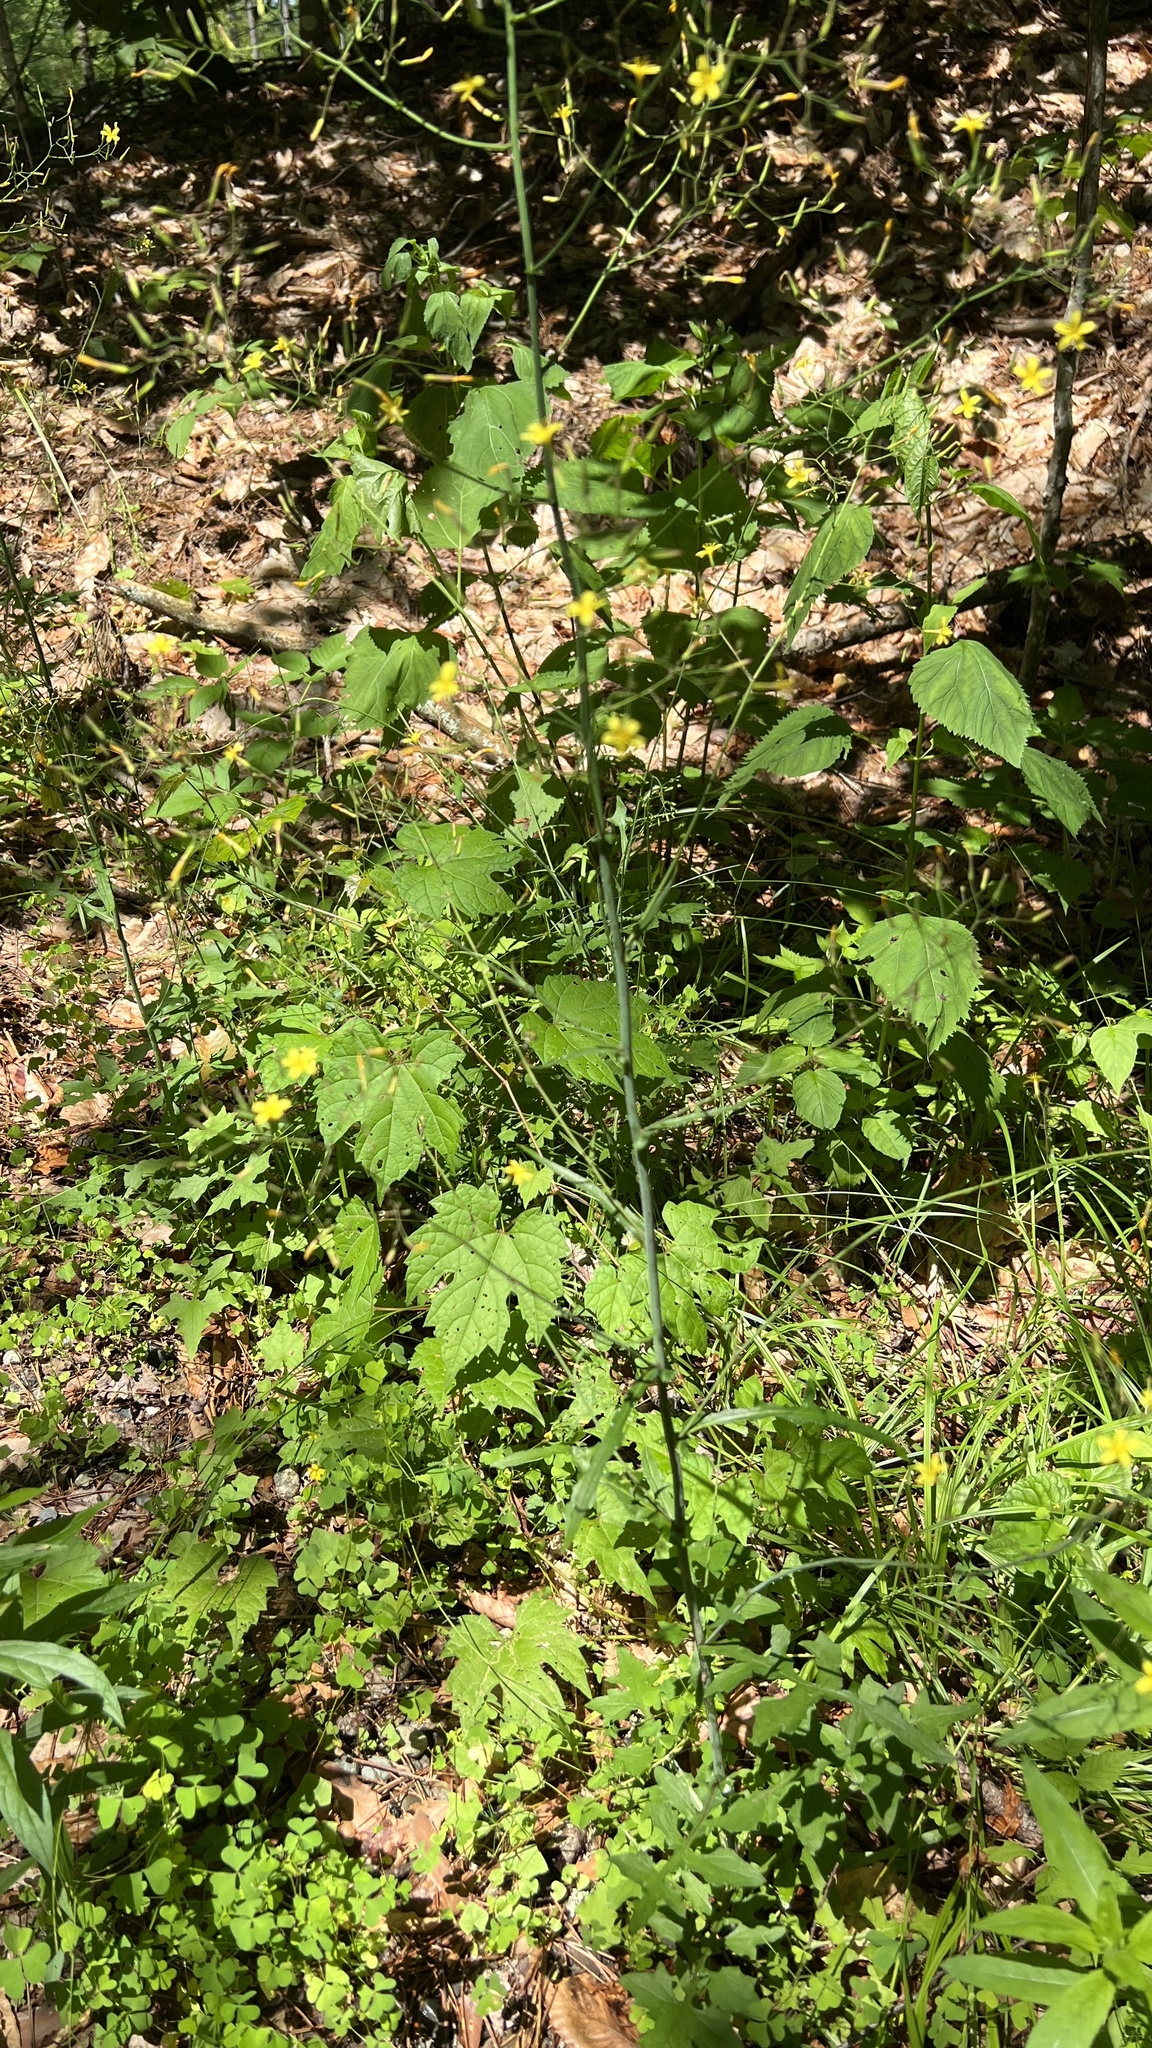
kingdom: Plantae
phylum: Tracheophyta
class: Magnoliopsida
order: Asterales
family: Asteraceae
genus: Mycelis
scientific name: Mycelis muralis
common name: Wall lettuce
